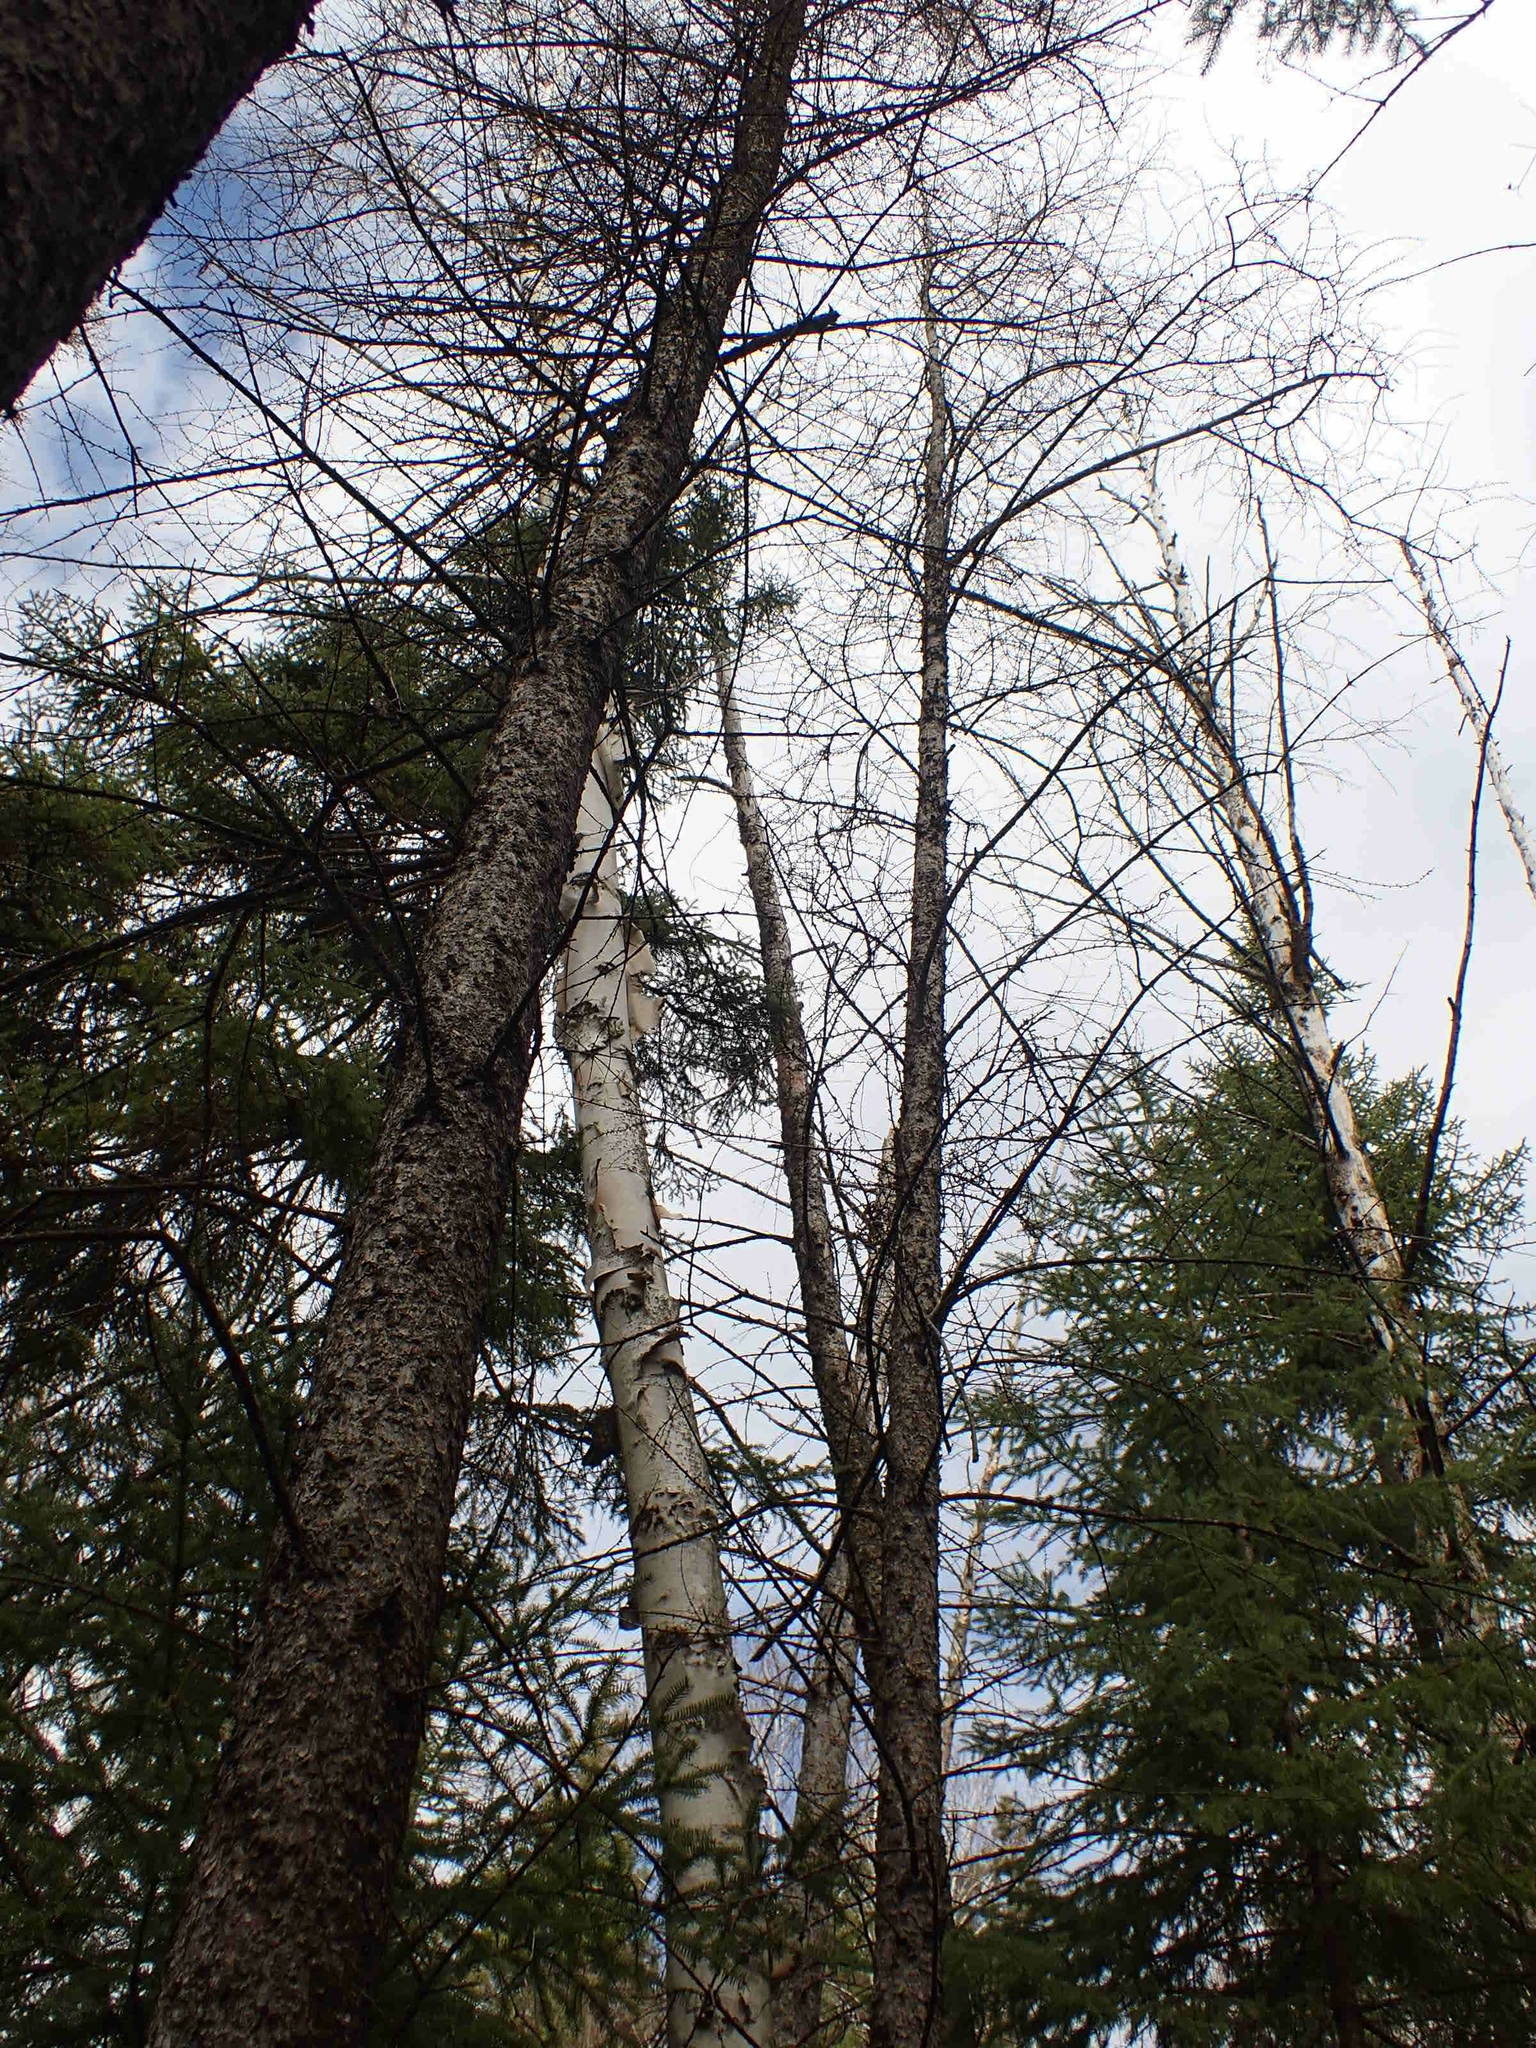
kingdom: Plantae
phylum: Tracheophyta
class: Pinopsida
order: Pinales
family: Pinaceae
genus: Larix
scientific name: Larix laricina
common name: American larch
